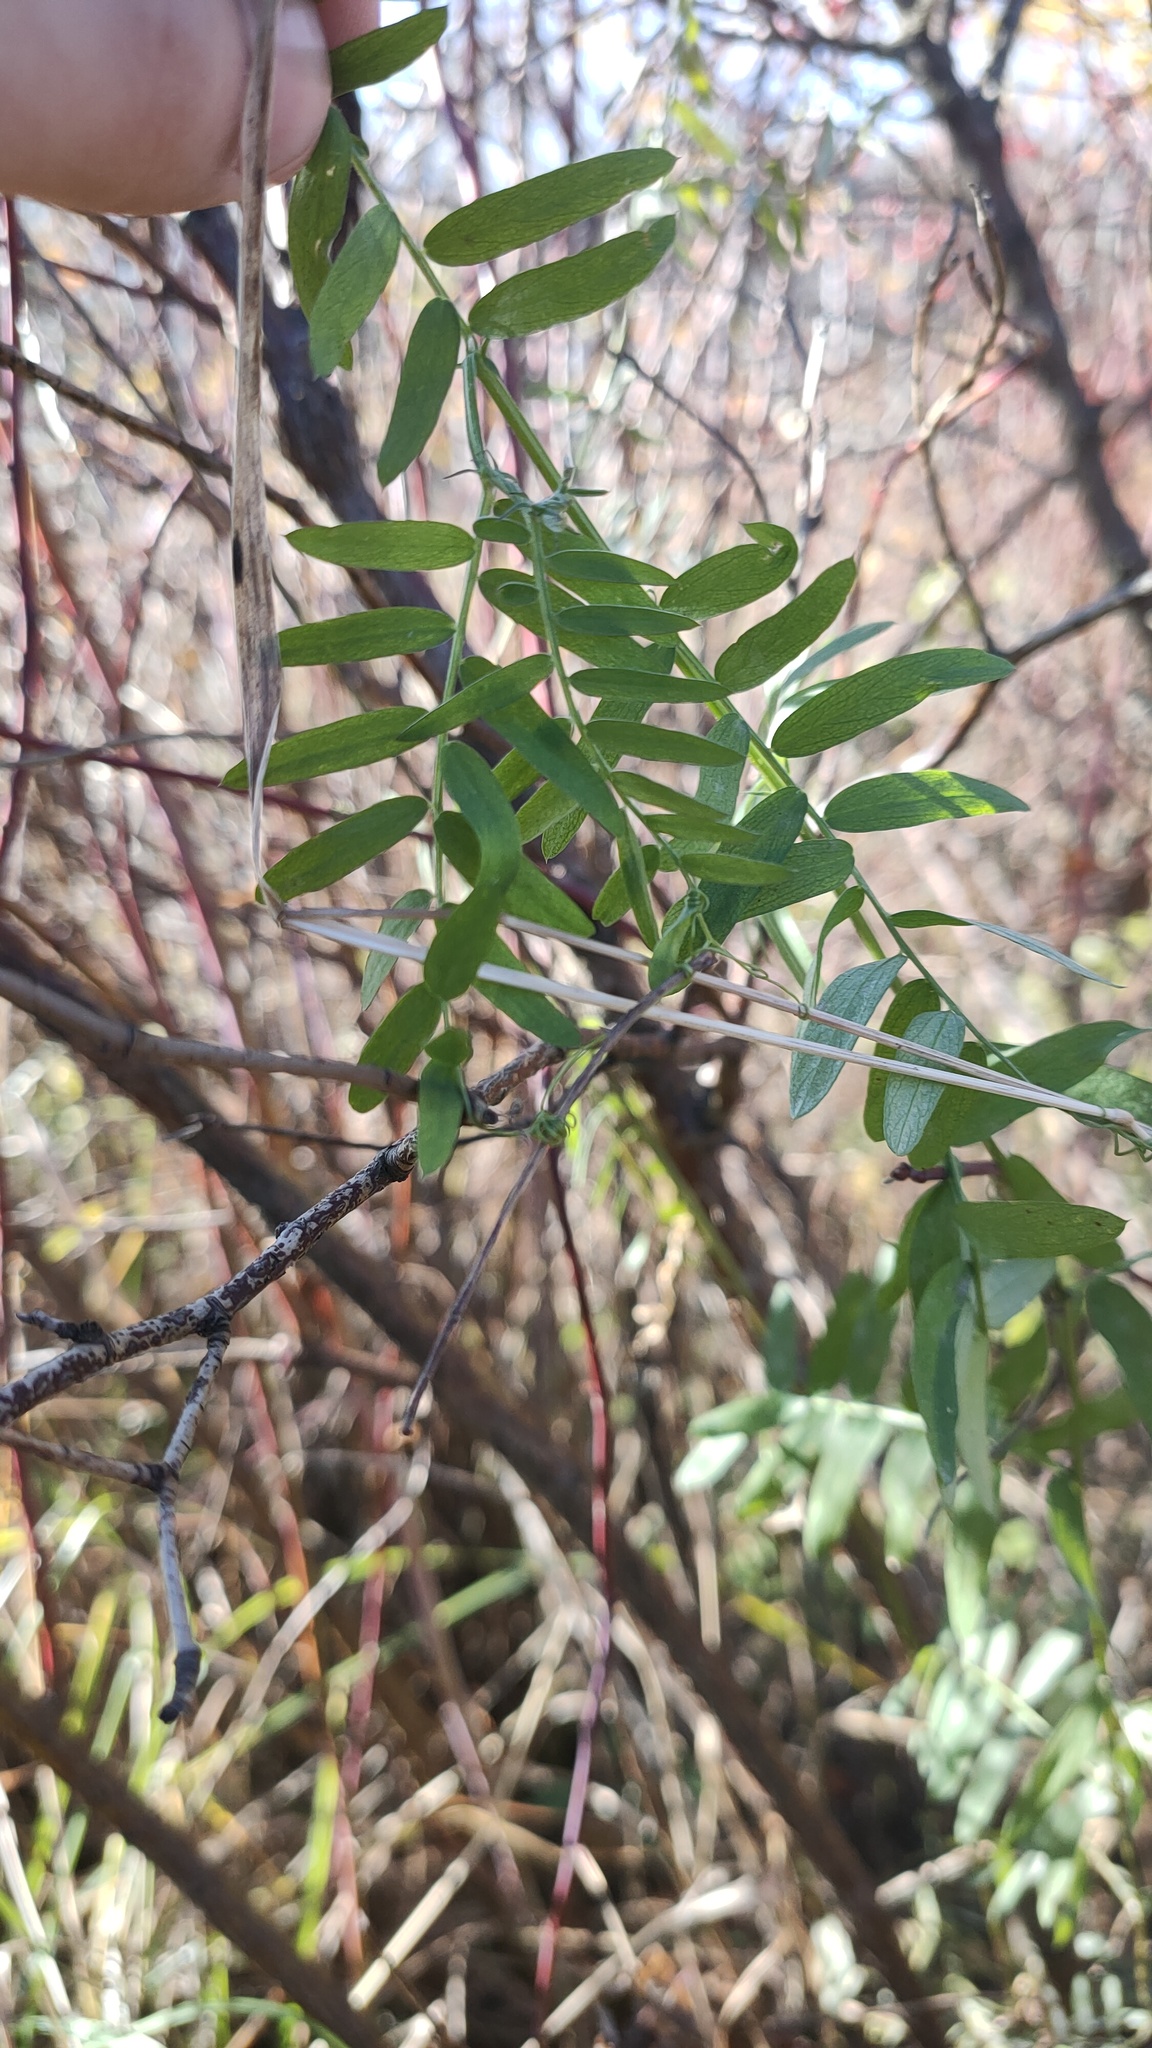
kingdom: Plantae
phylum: Tracheophyta
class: Magnoliopsida
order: Fabales
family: Fabaceae
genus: Vicia
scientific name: Vicia cracca
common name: Bird vetch
